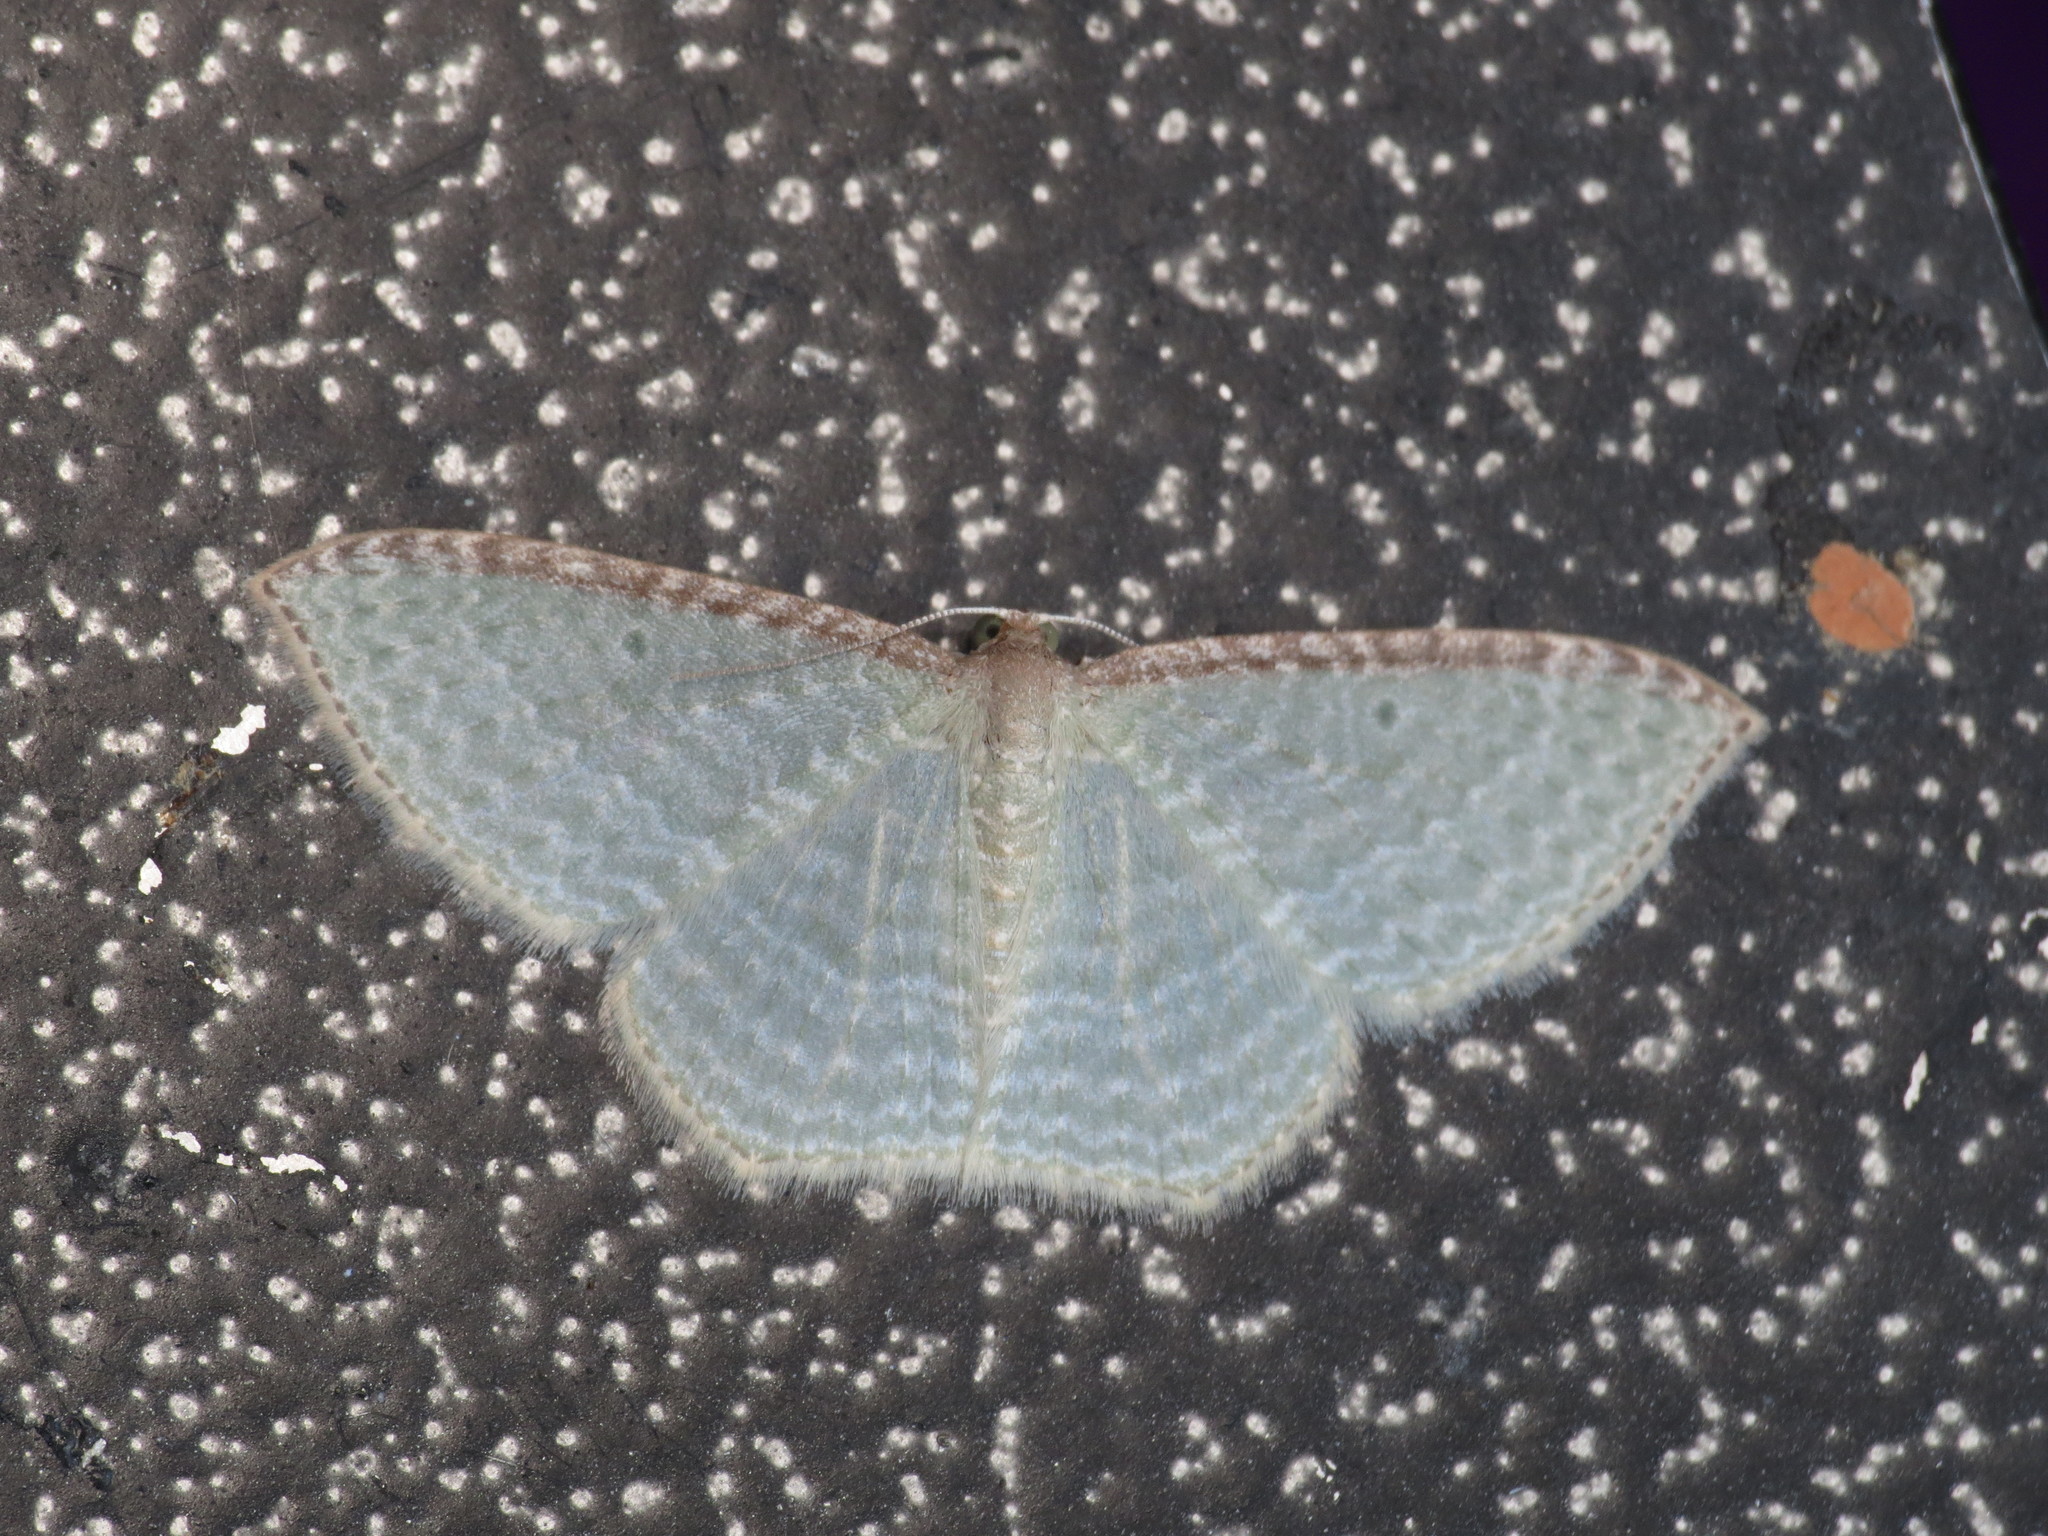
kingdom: Animalia
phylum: Arthropoda
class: Insecta
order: Lepidoptera
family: Geometridae
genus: Poecilasthena
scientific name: Poecilasthena pulchraria
